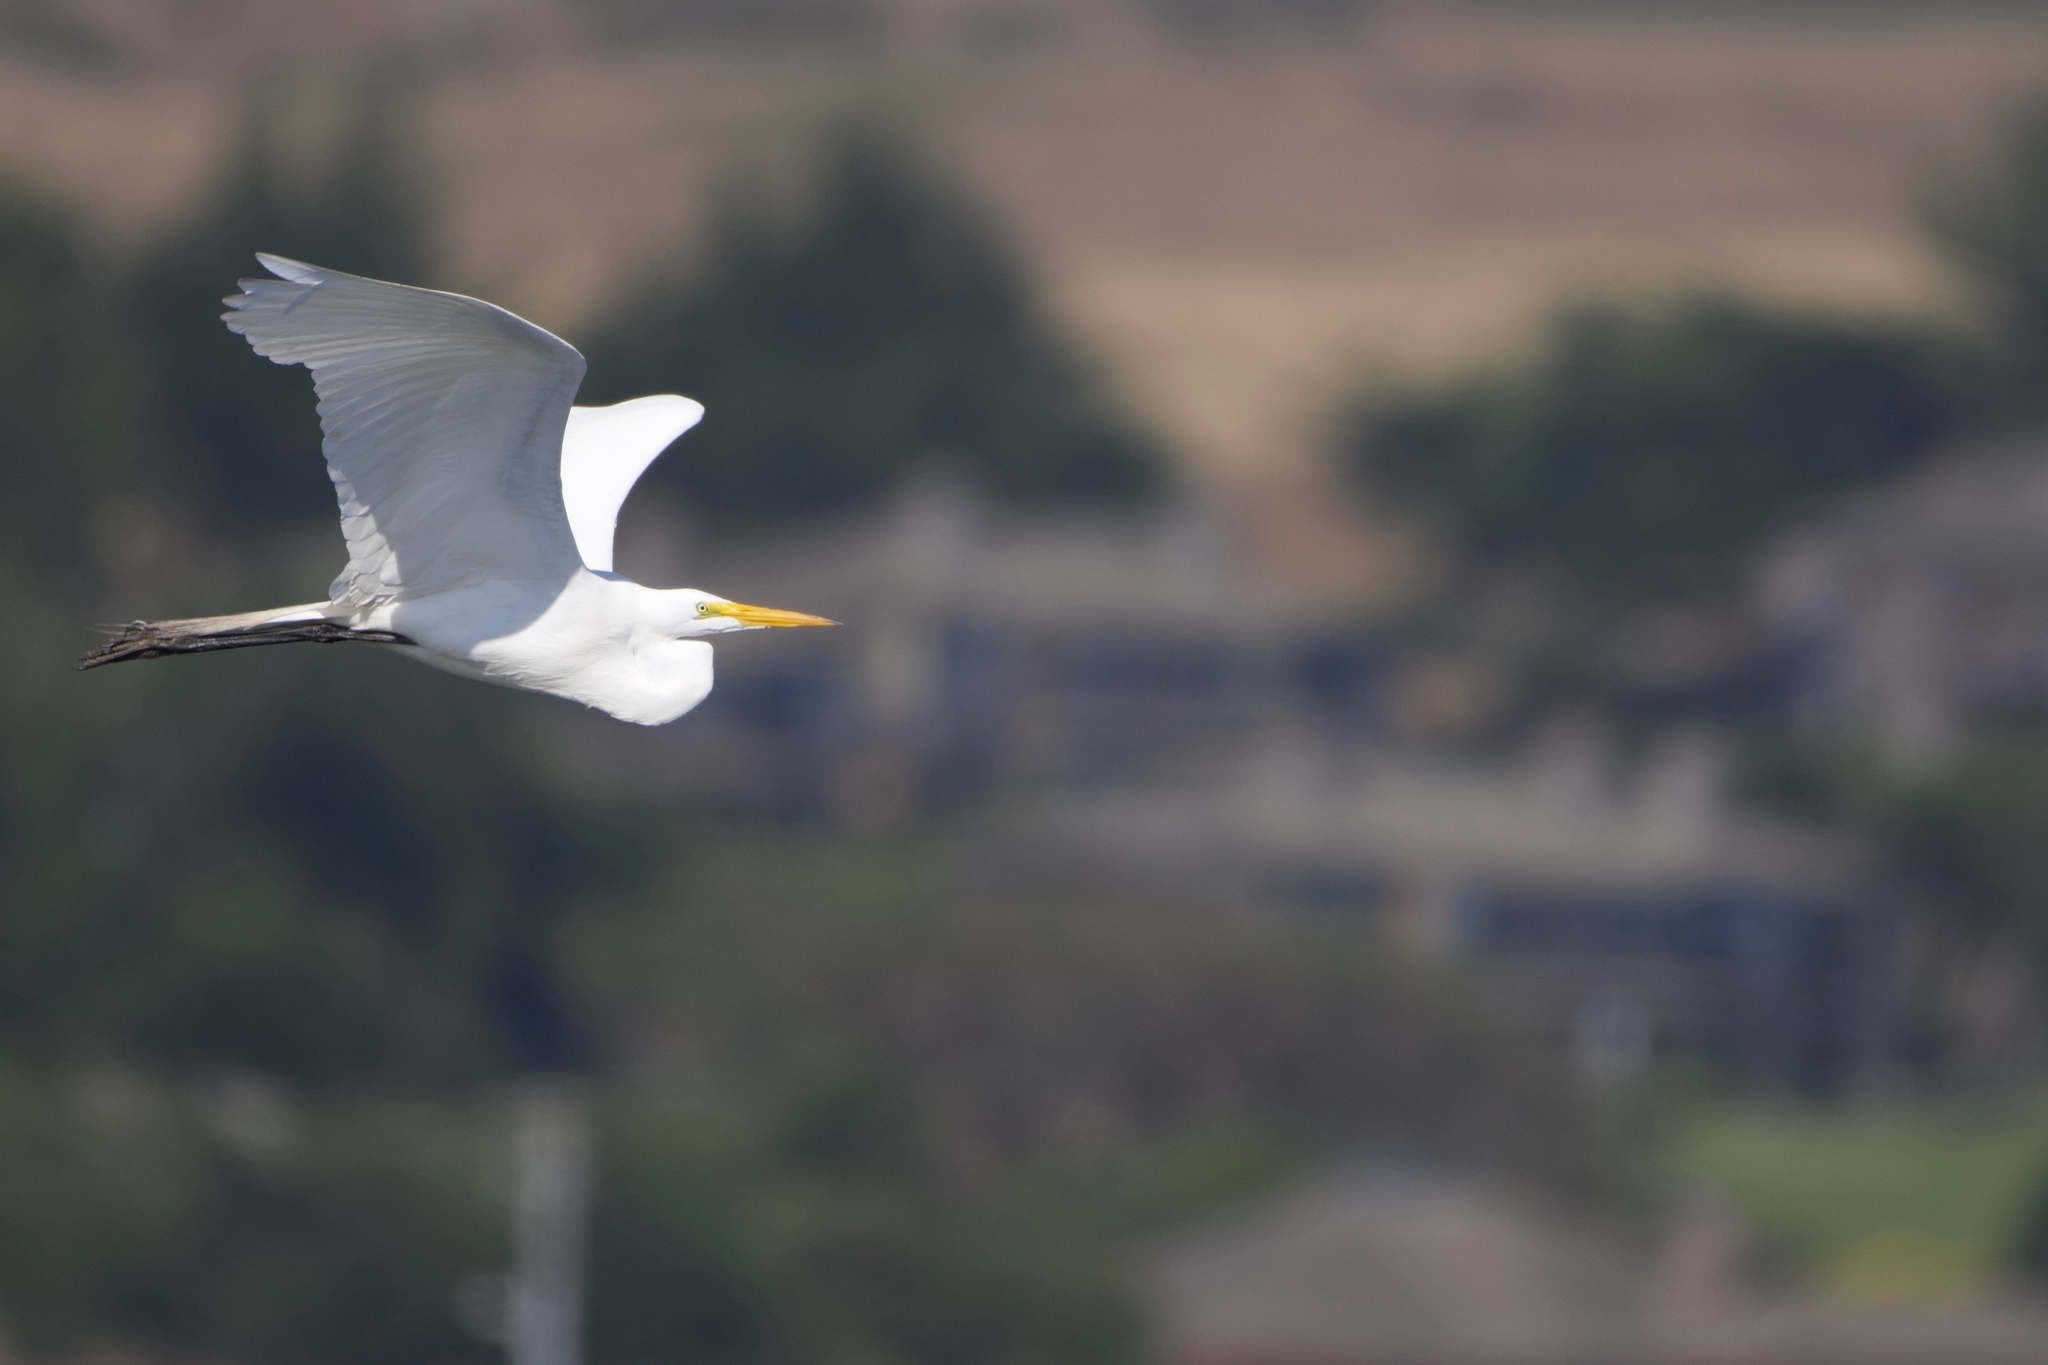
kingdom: Animalia
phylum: Chordata
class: Aves
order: Pelecaniformes
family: Ardeidae
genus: Ardea
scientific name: Ardea alba
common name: Great egret
